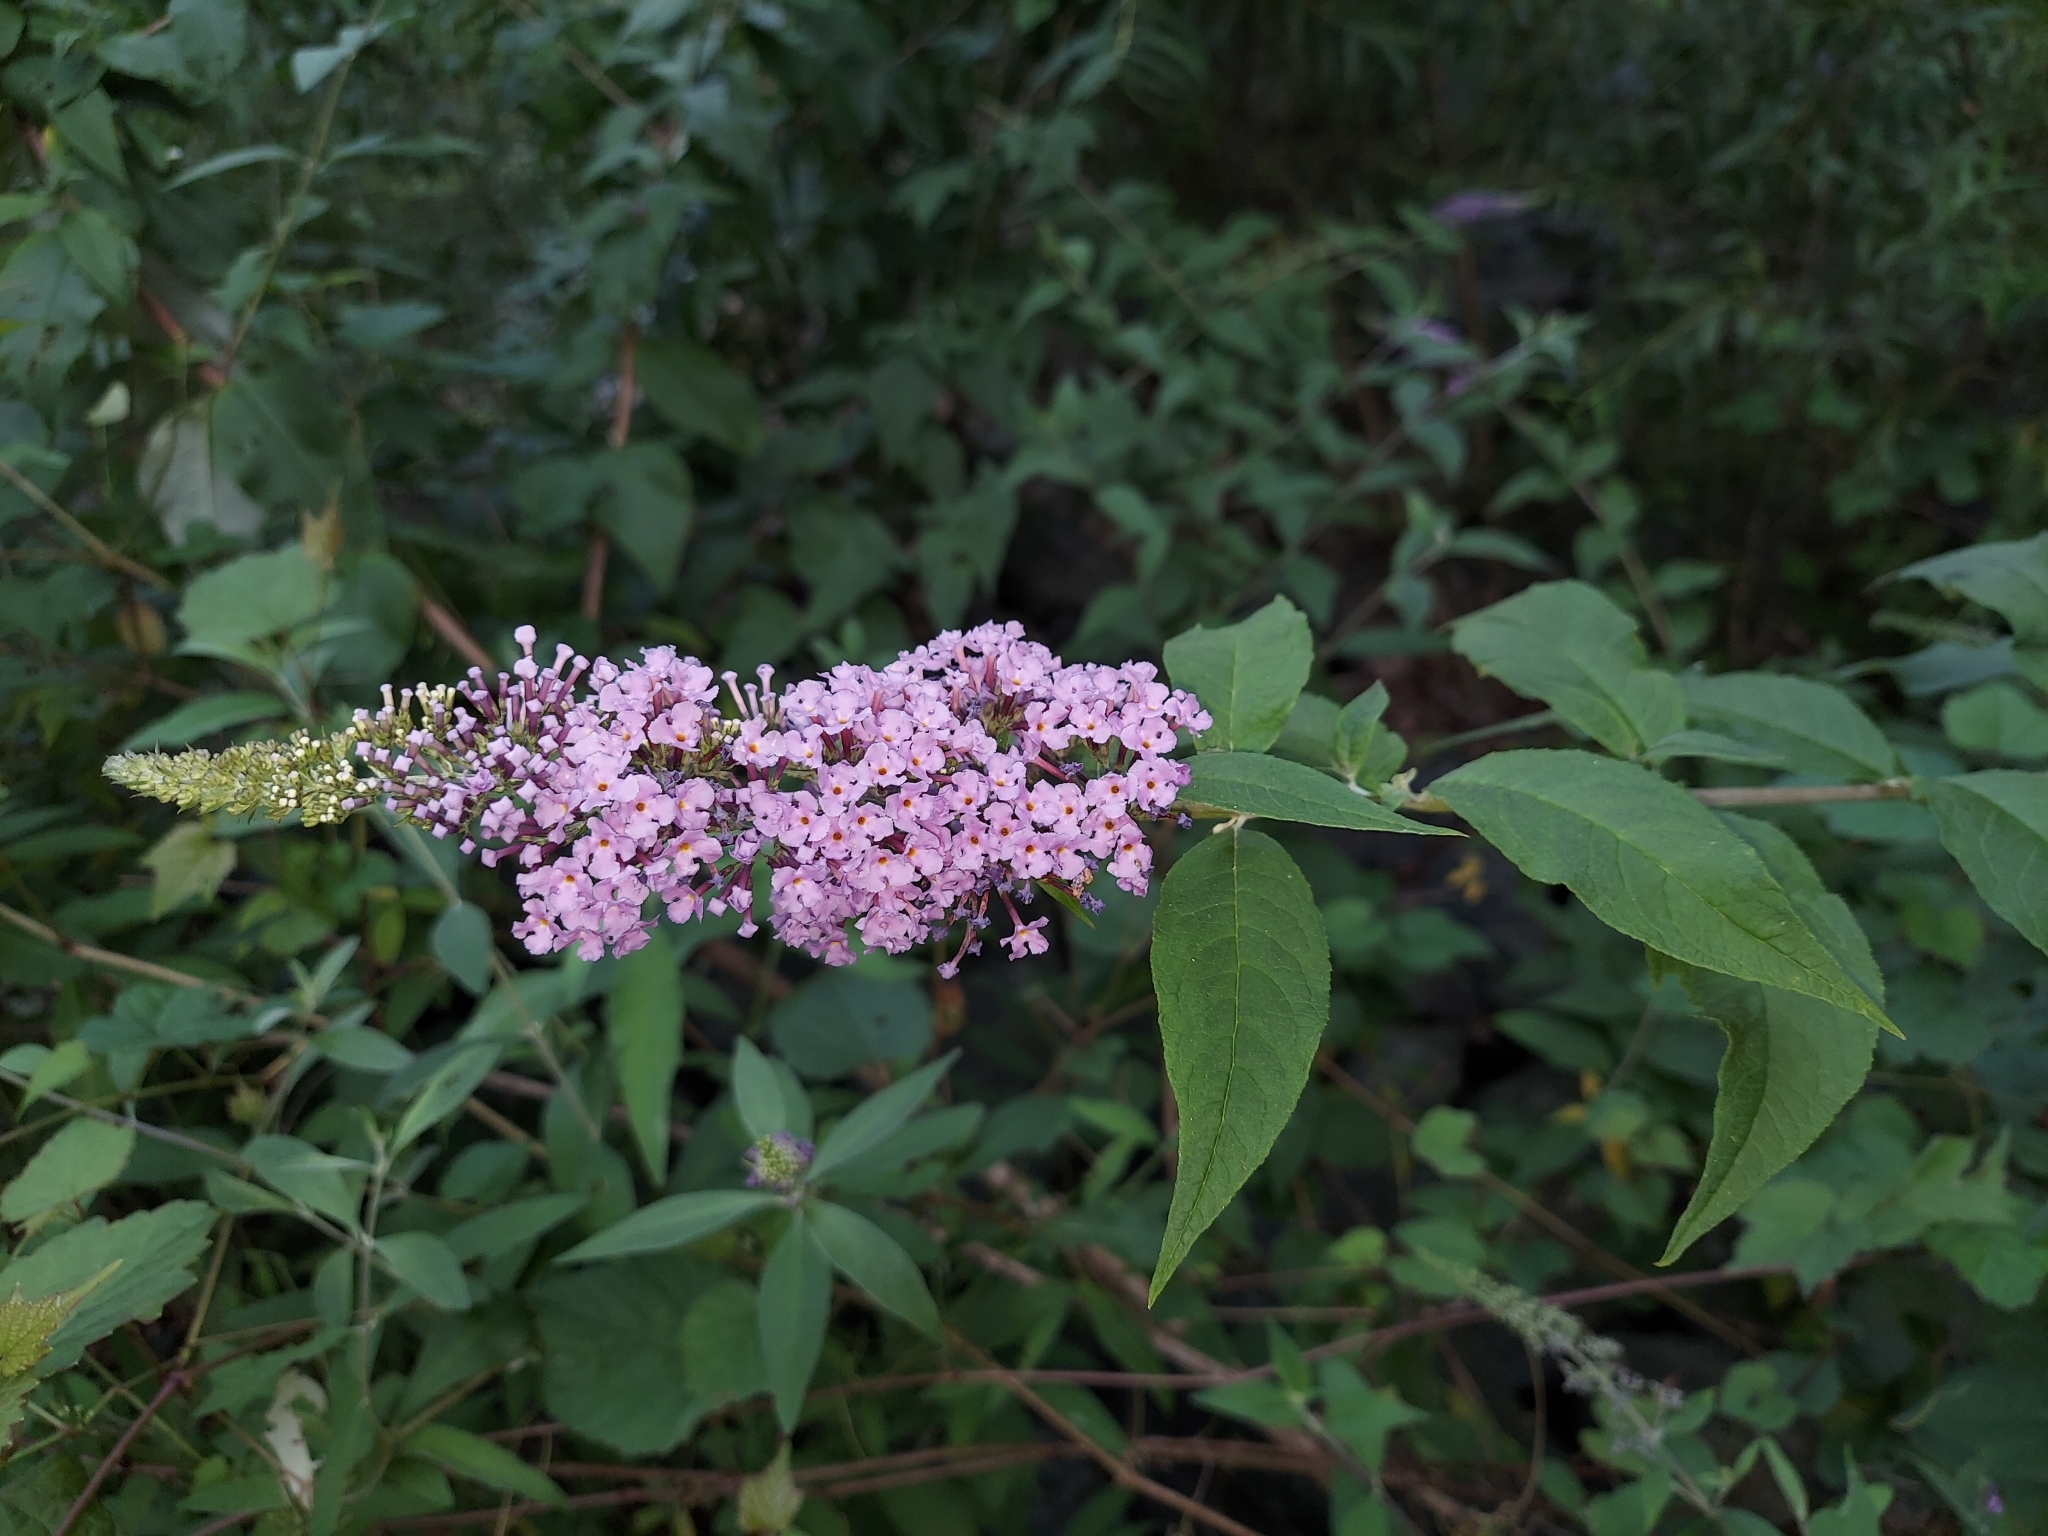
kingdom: Plantae
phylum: Tracheophyta
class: Magnoliopsida
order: Lamiales
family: Scrophulariaceae
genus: Buddleja
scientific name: Buddleja davidii
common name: Butterfly-bush
